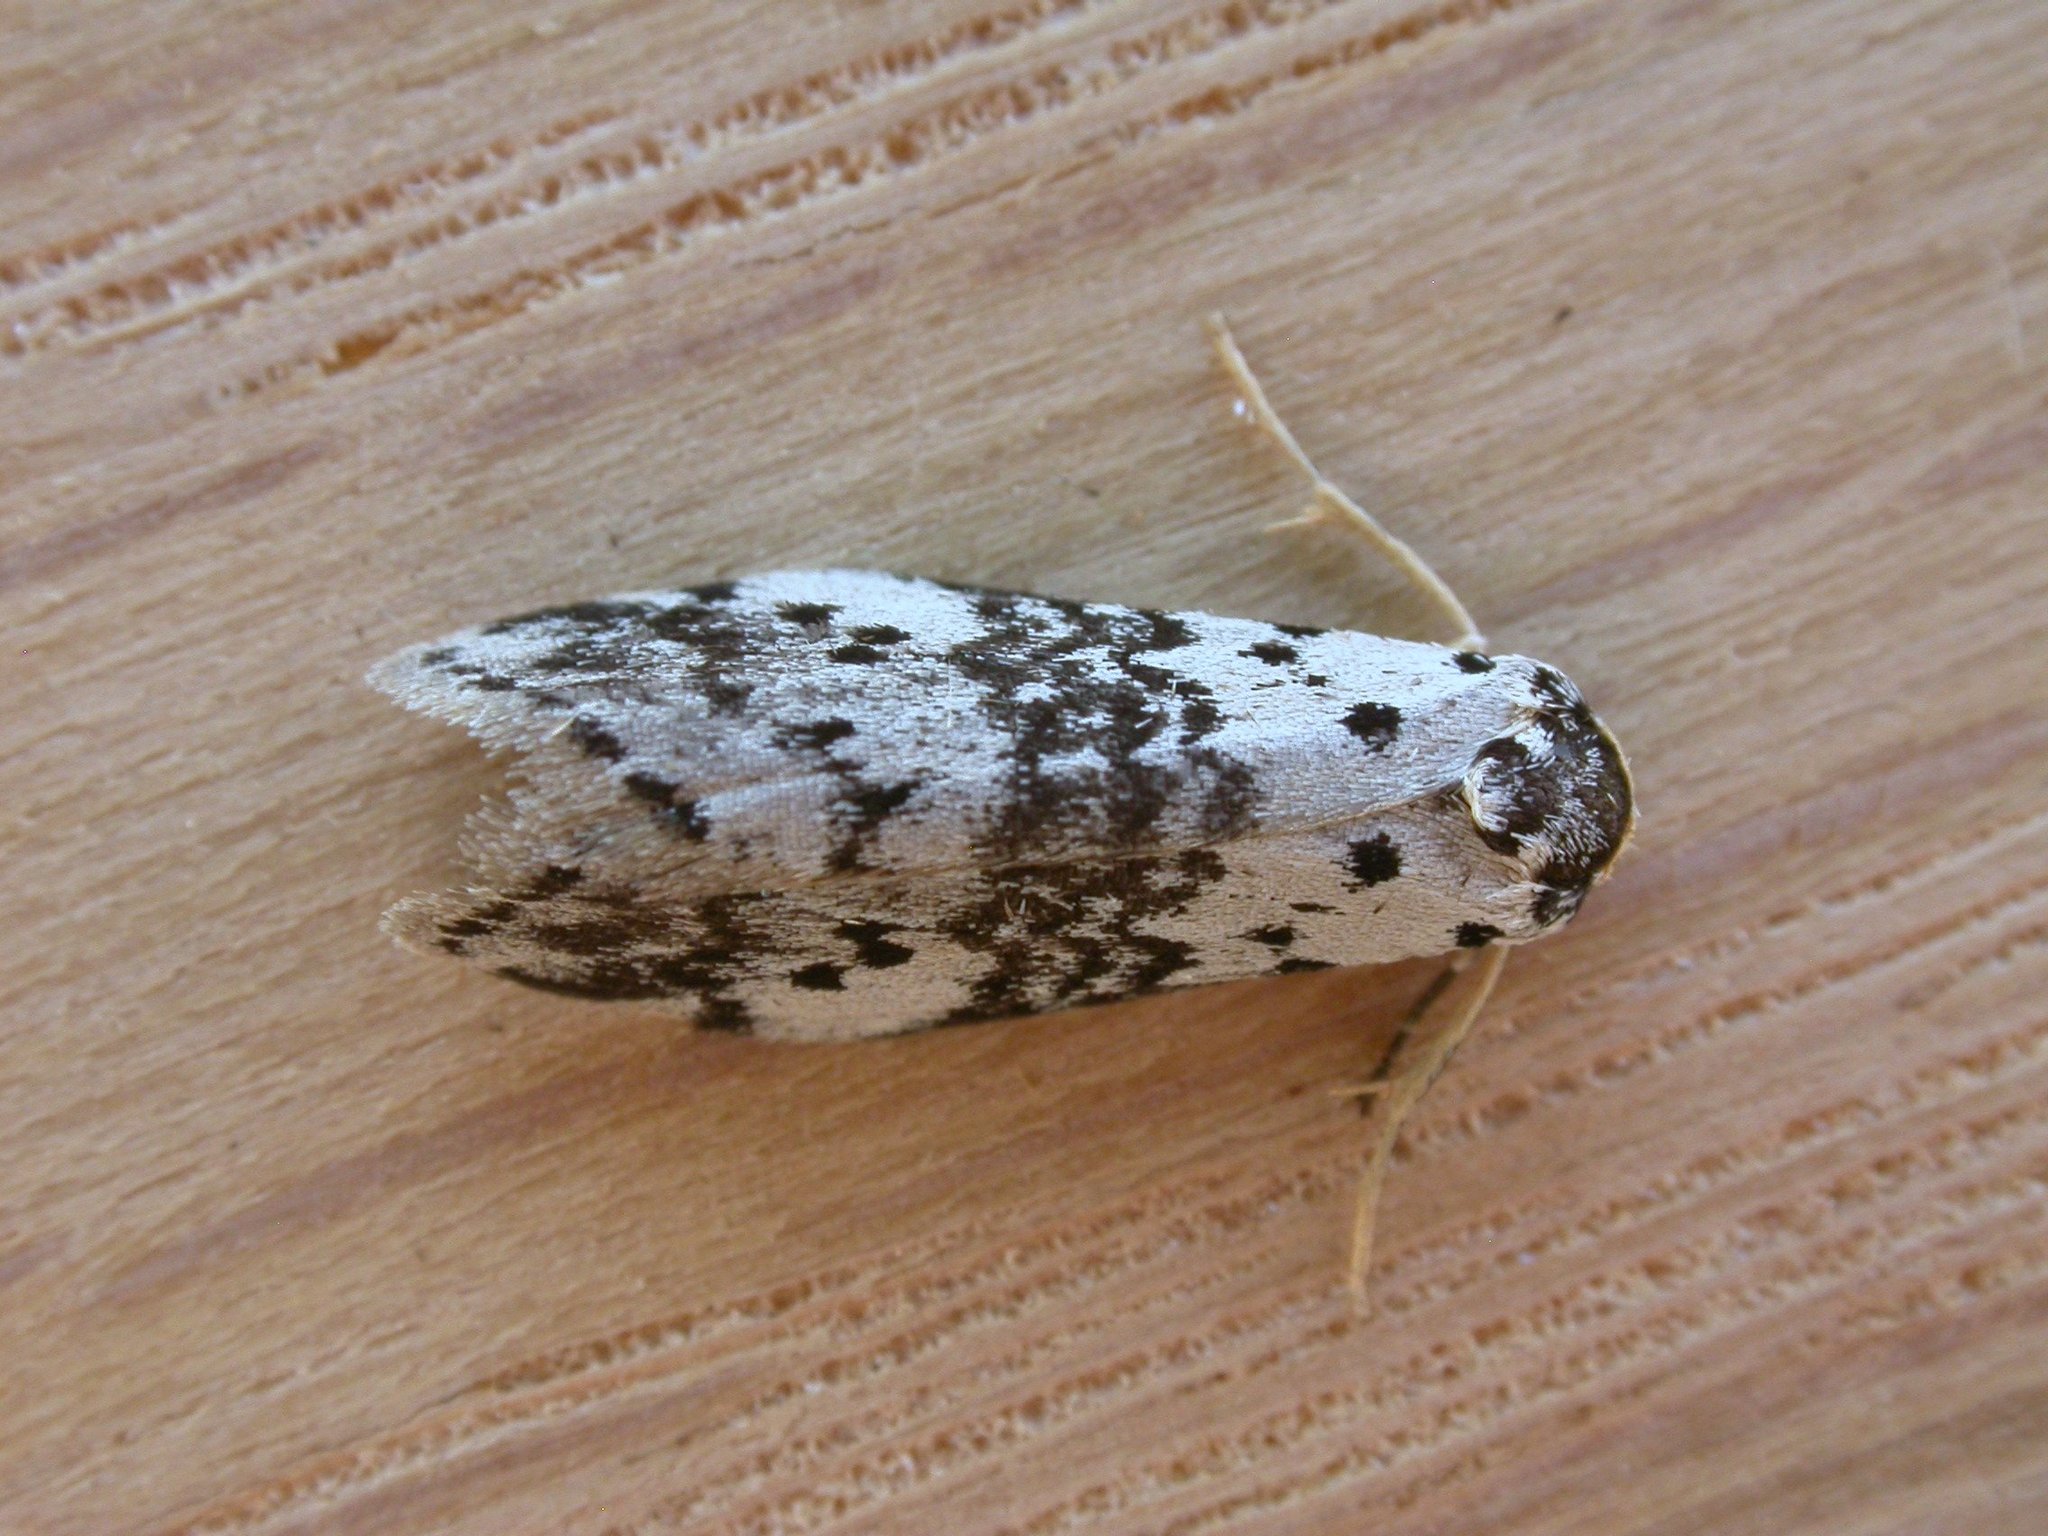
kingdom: Animalia
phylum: Arthropoda
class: Insecta
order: Lepidoptera
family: Erebidae
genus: Thallarcha
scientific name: Thallarcha rhaptophora
